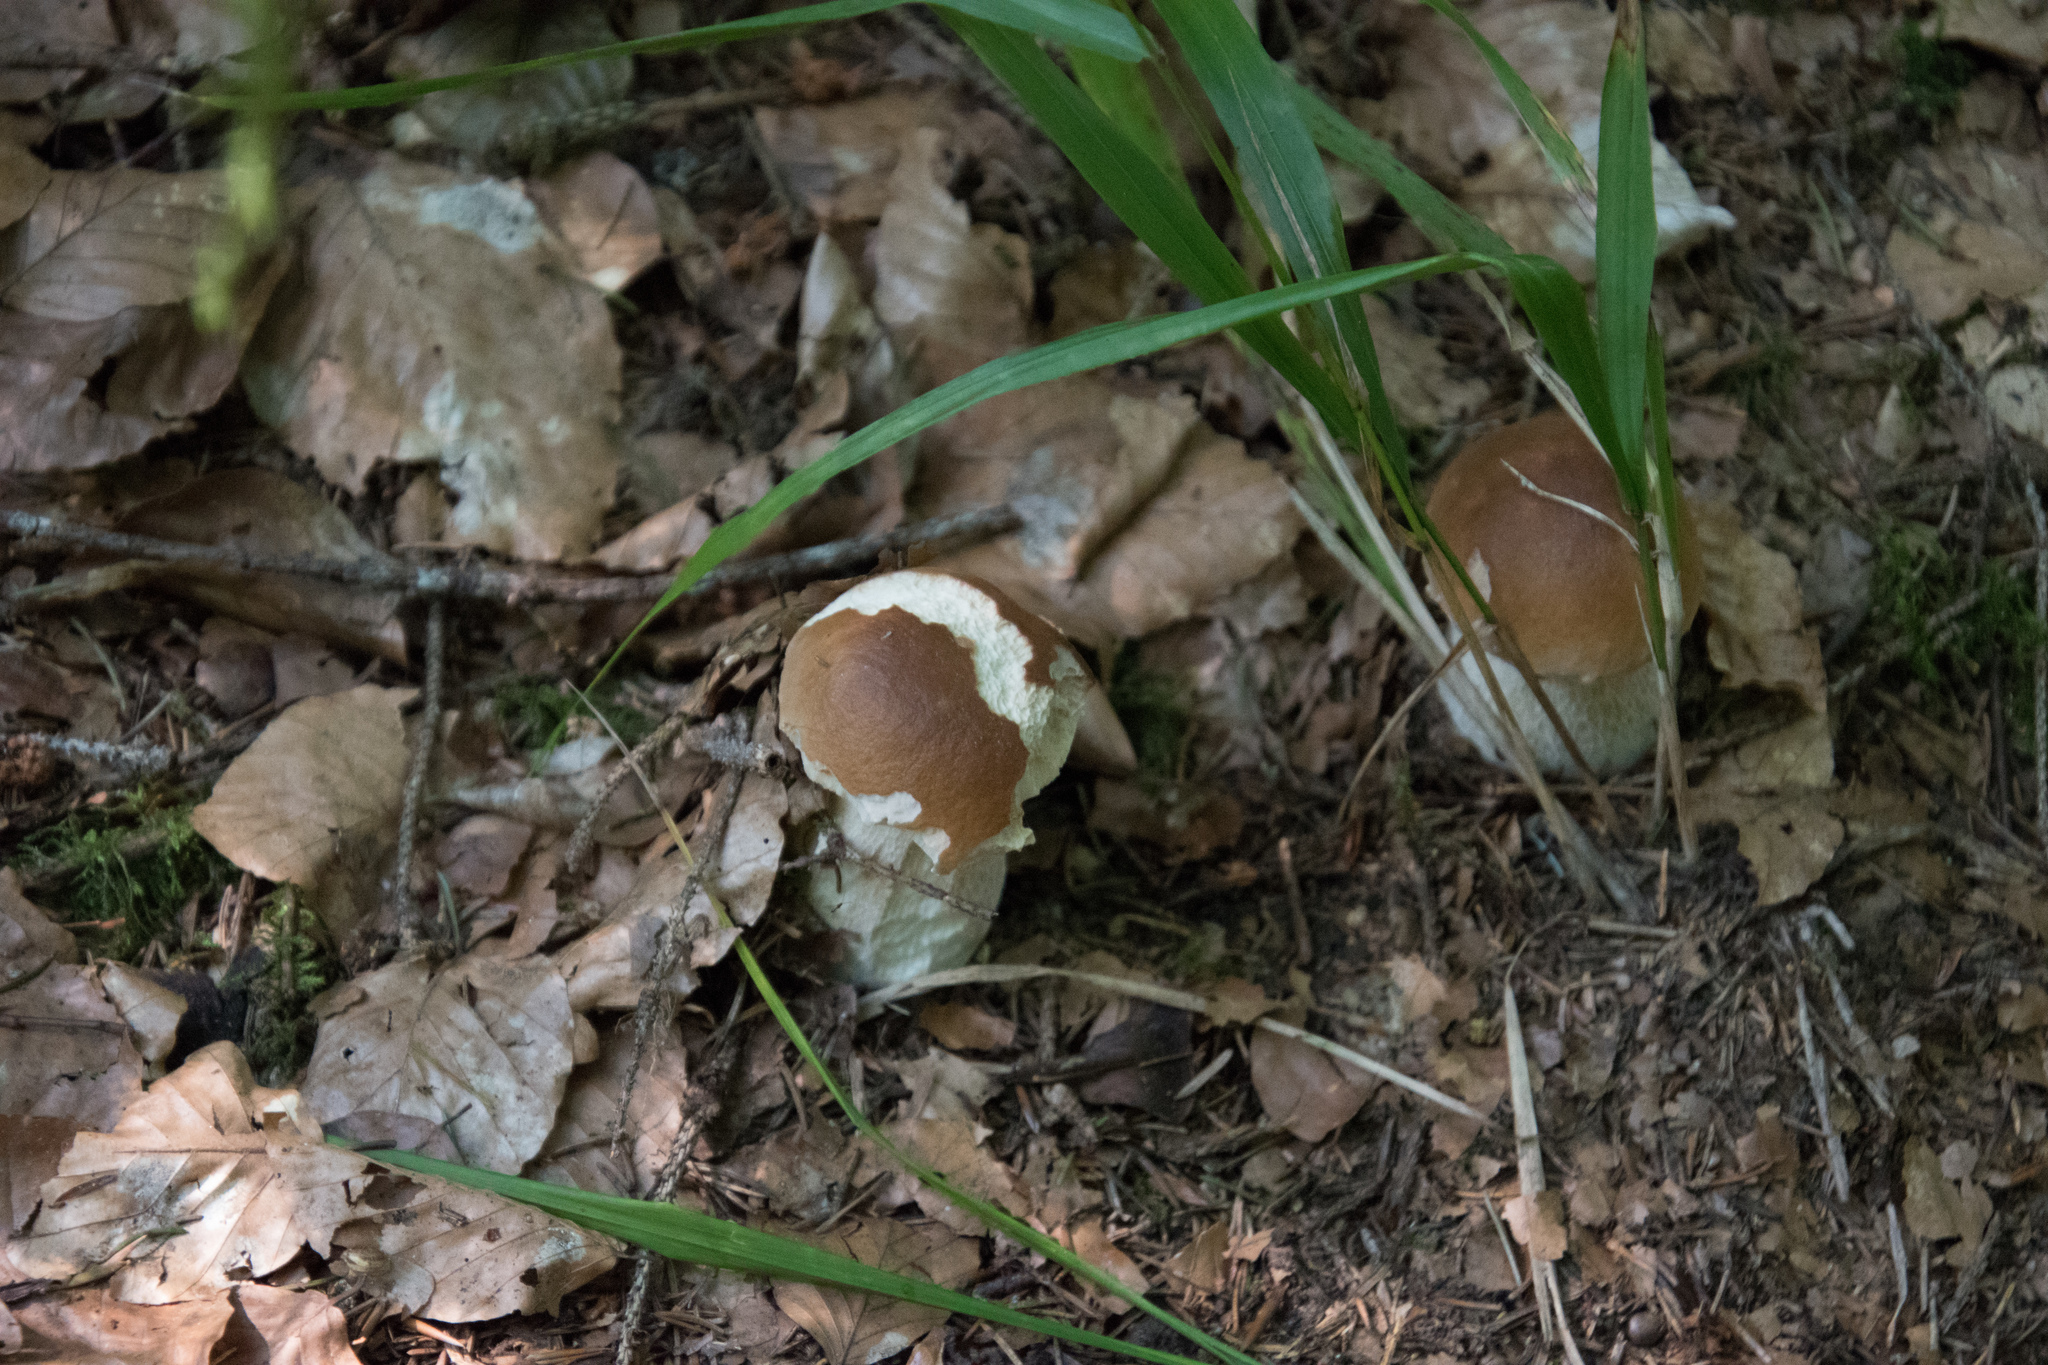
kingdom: Fungi
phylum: Basidiomycota
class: Agaricomycetes
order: Boletales
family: Boletaceae
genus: Boletus
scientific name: Boletus edulis
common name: Cep
